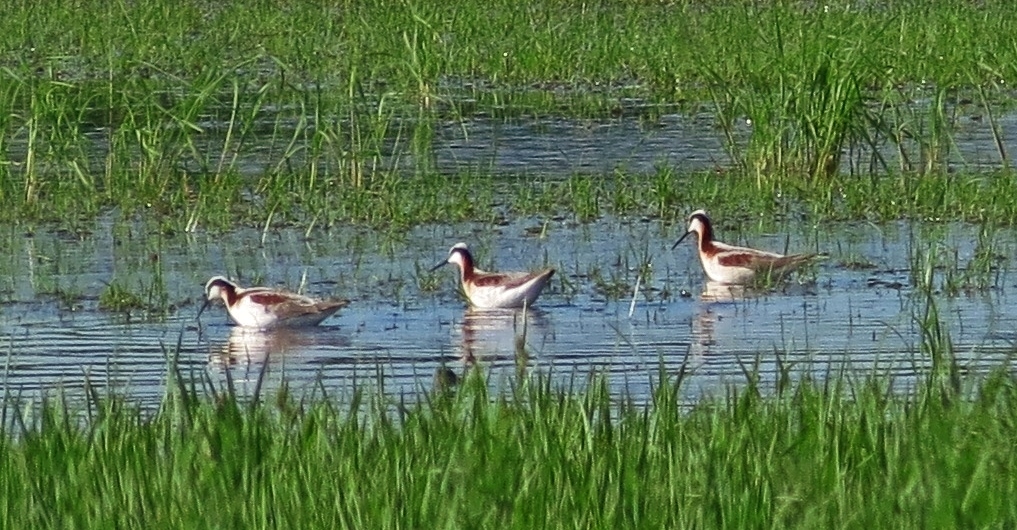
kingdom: Animalia
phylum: Chordata
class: Aves
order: Charadriiformes
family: Scolopacidae
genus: Phalaropus
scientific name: Phalaropus tricolor
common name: Wilson's phalarope
